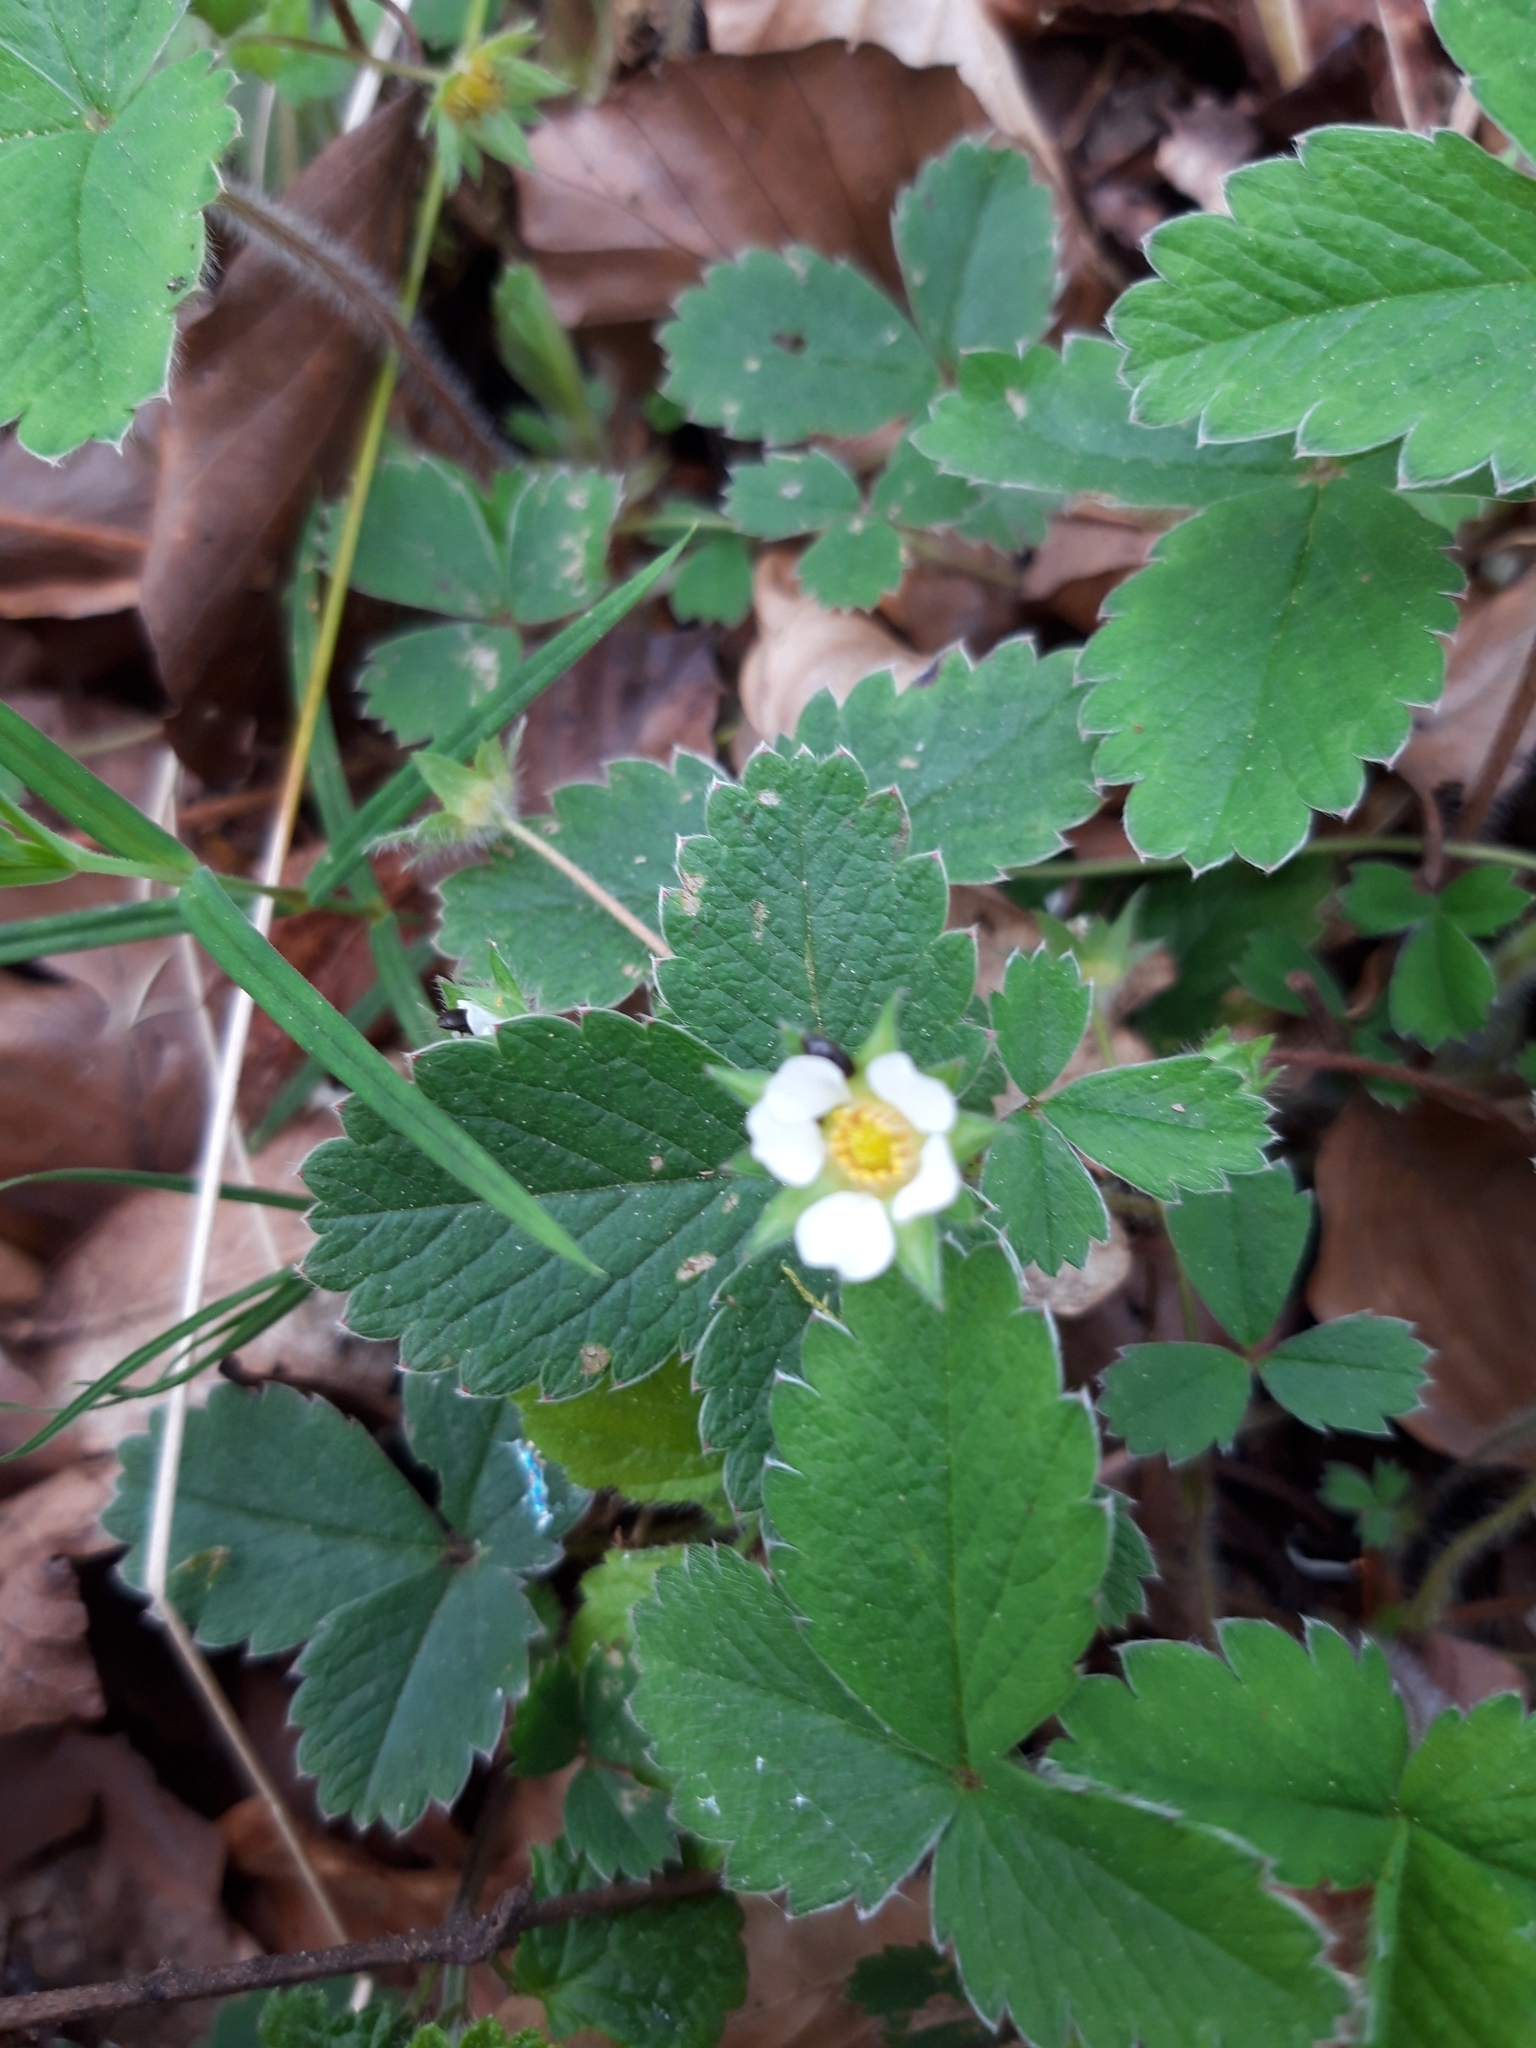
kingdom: Plantae
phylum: Tracheophyta
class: Magnoliopsida
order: Rosales
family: Rosaceae
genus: Potentilla
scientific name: Potentilla sterilis
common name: Barren strawberry
